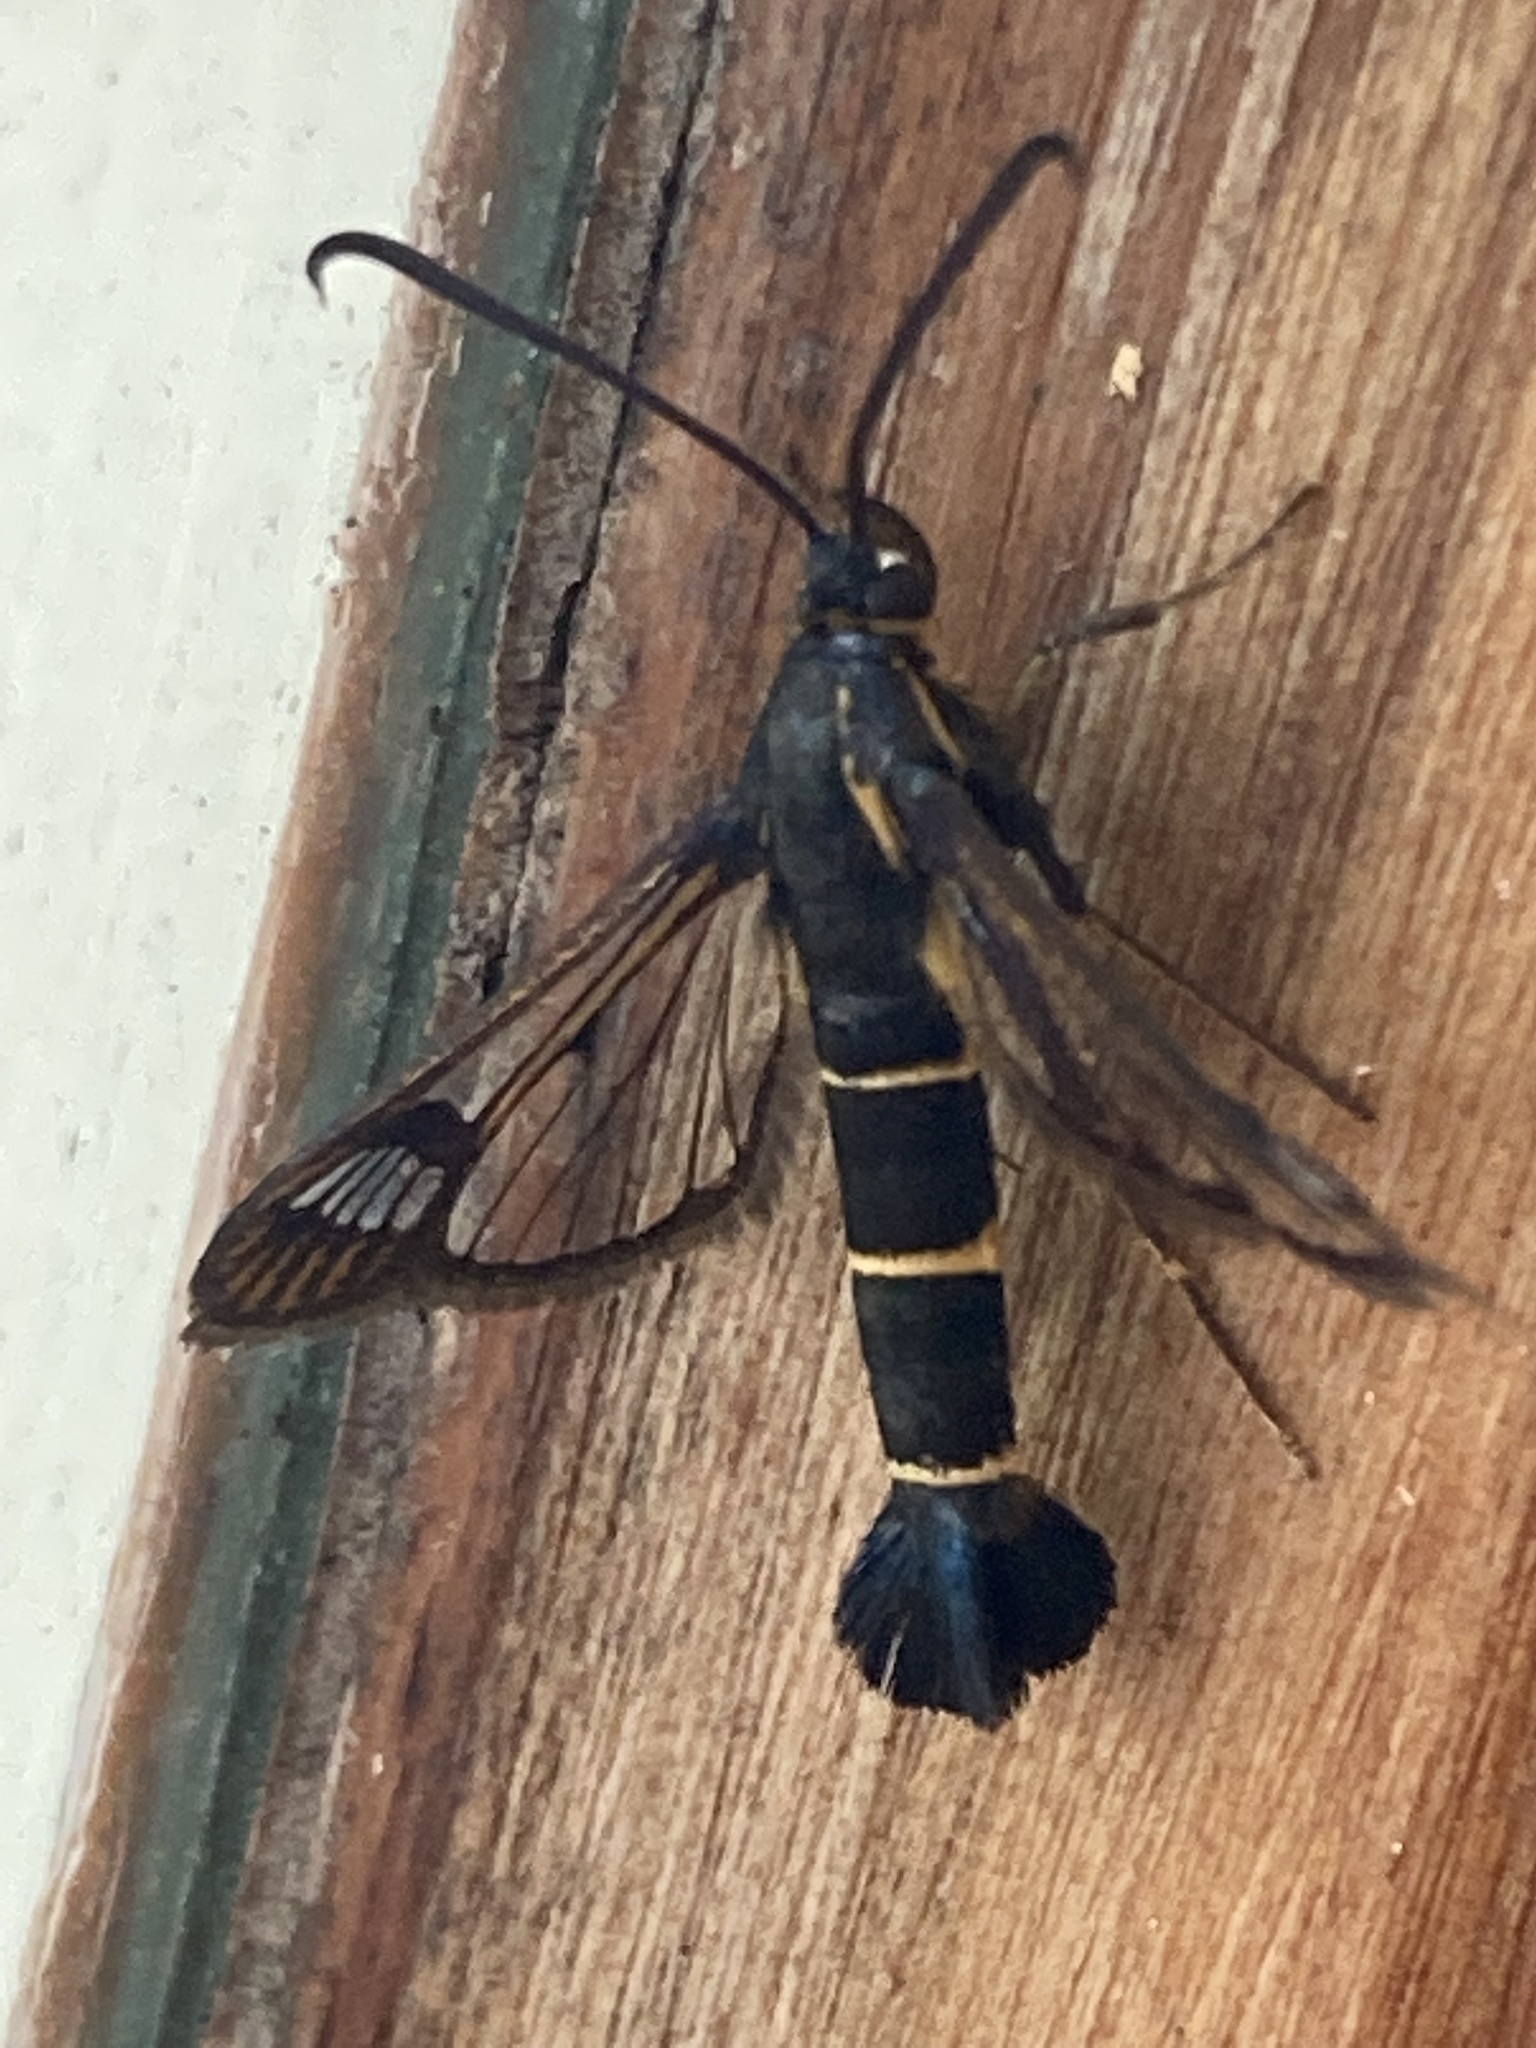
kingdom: Animalia
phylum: Arthropoda
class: Insecta
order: Lepidoptera
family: Sesiidae
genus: Synanthedon
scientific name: Synanthedon tipuliformis
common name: Currant clearwing
